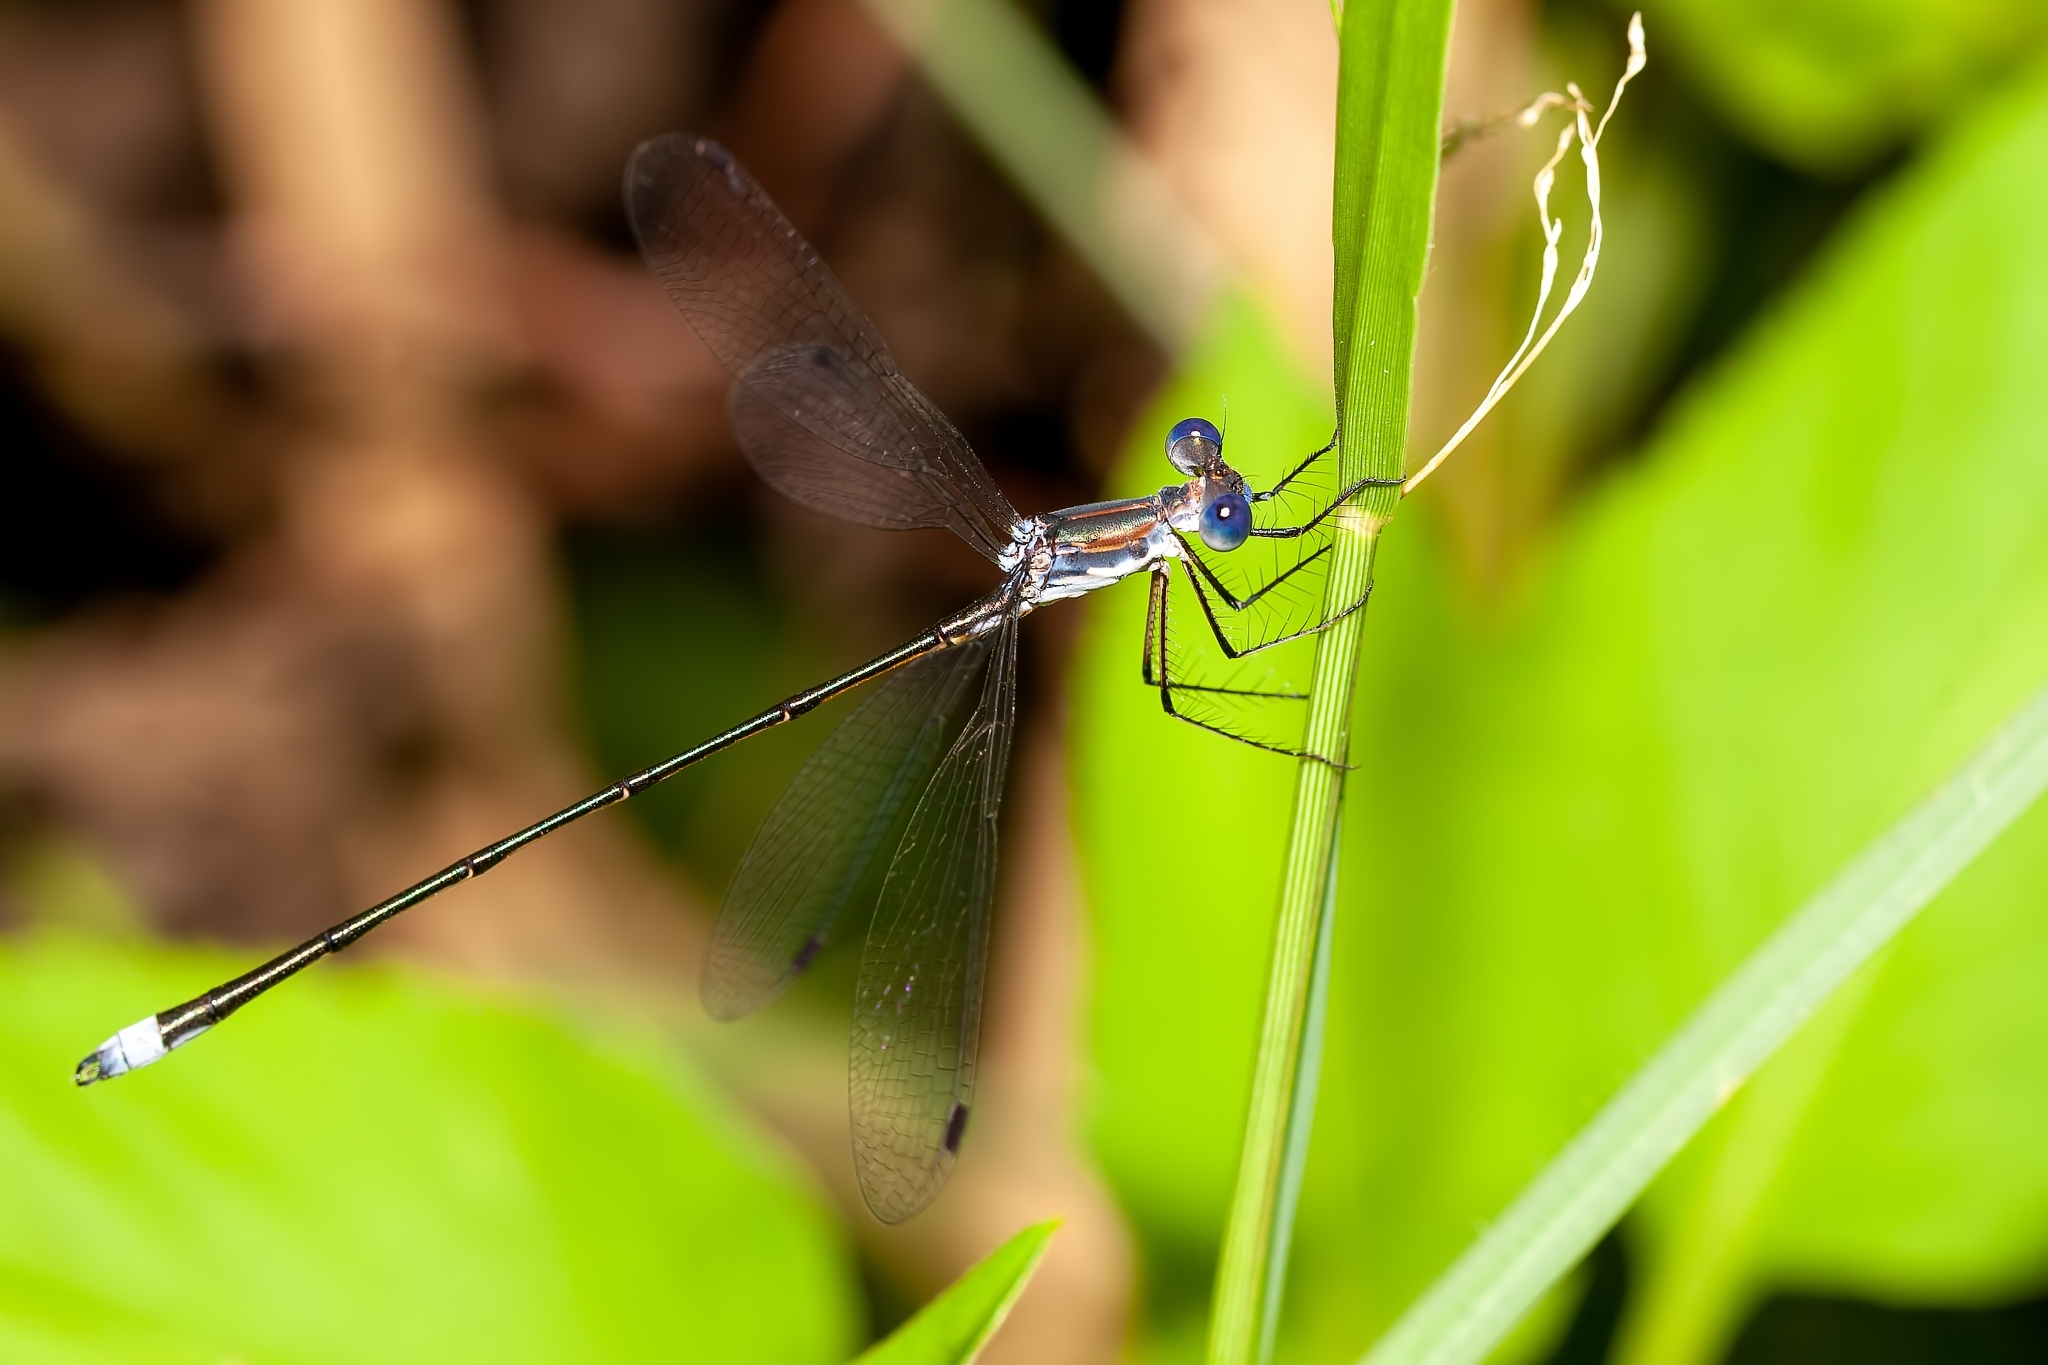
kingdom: Animalia
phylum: Arthropoda
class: Insecta
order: Odonata
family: Lestidae
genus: Lestes
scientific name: Lestes vidua
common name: Carolina spreadwing
